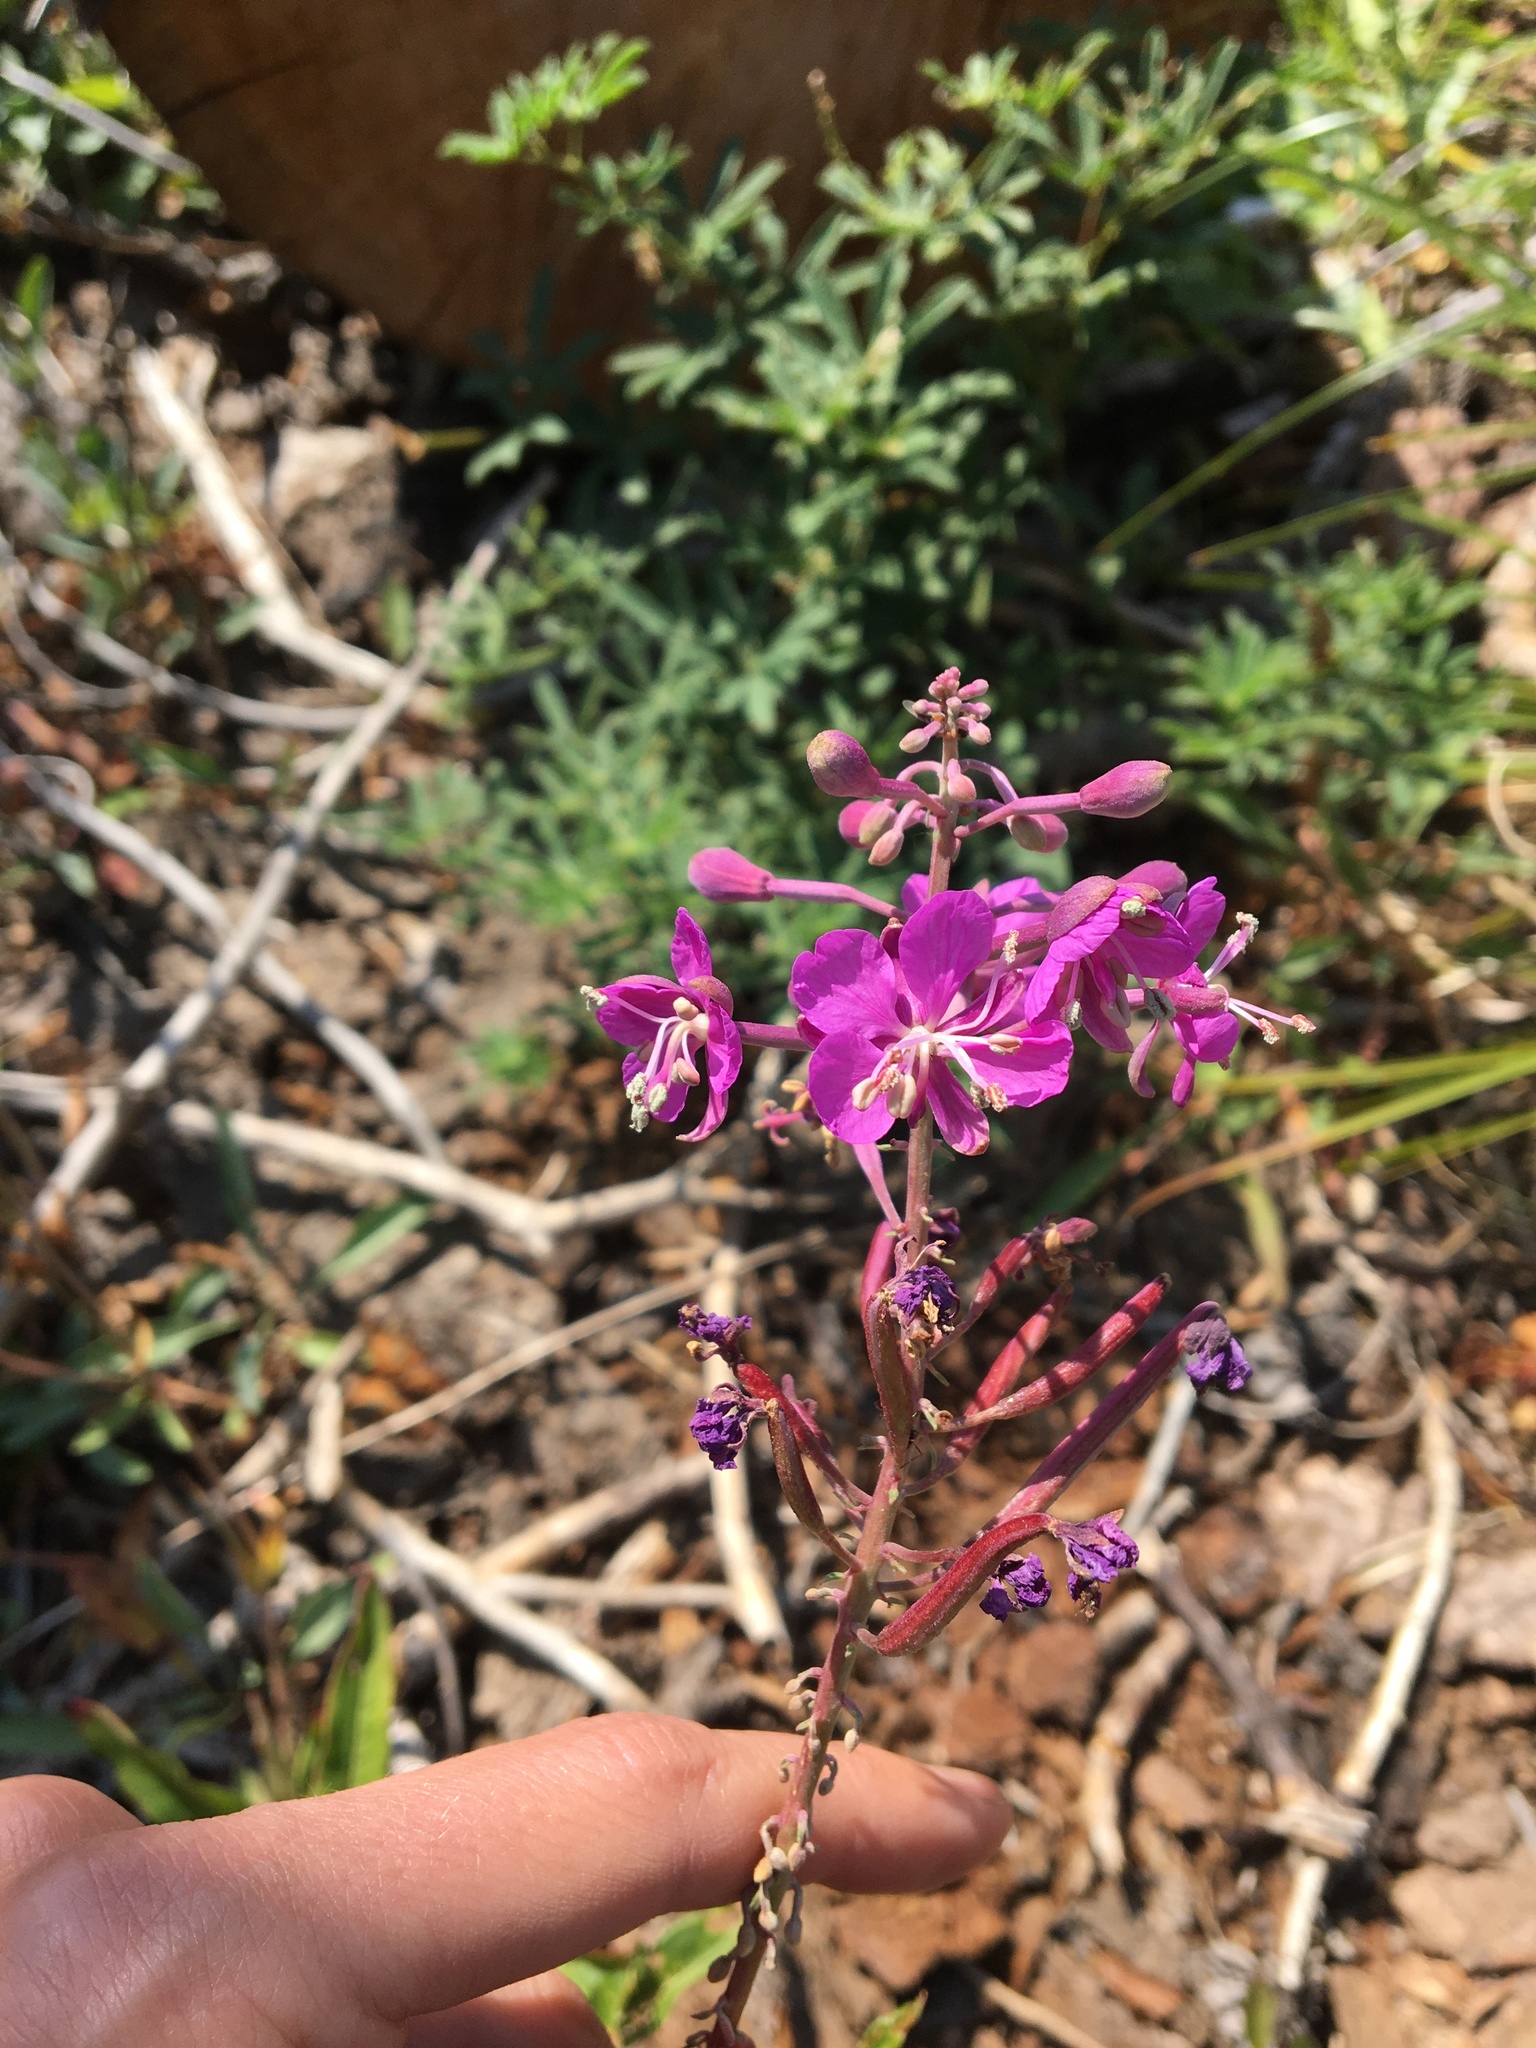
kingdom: Plantae
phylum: Tracheophyta
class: Magnoliopsida
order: Myrtales
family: Onagraceae
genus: Chamaenerion
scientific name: Chamaenerion angustifolium
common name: Fireweed
